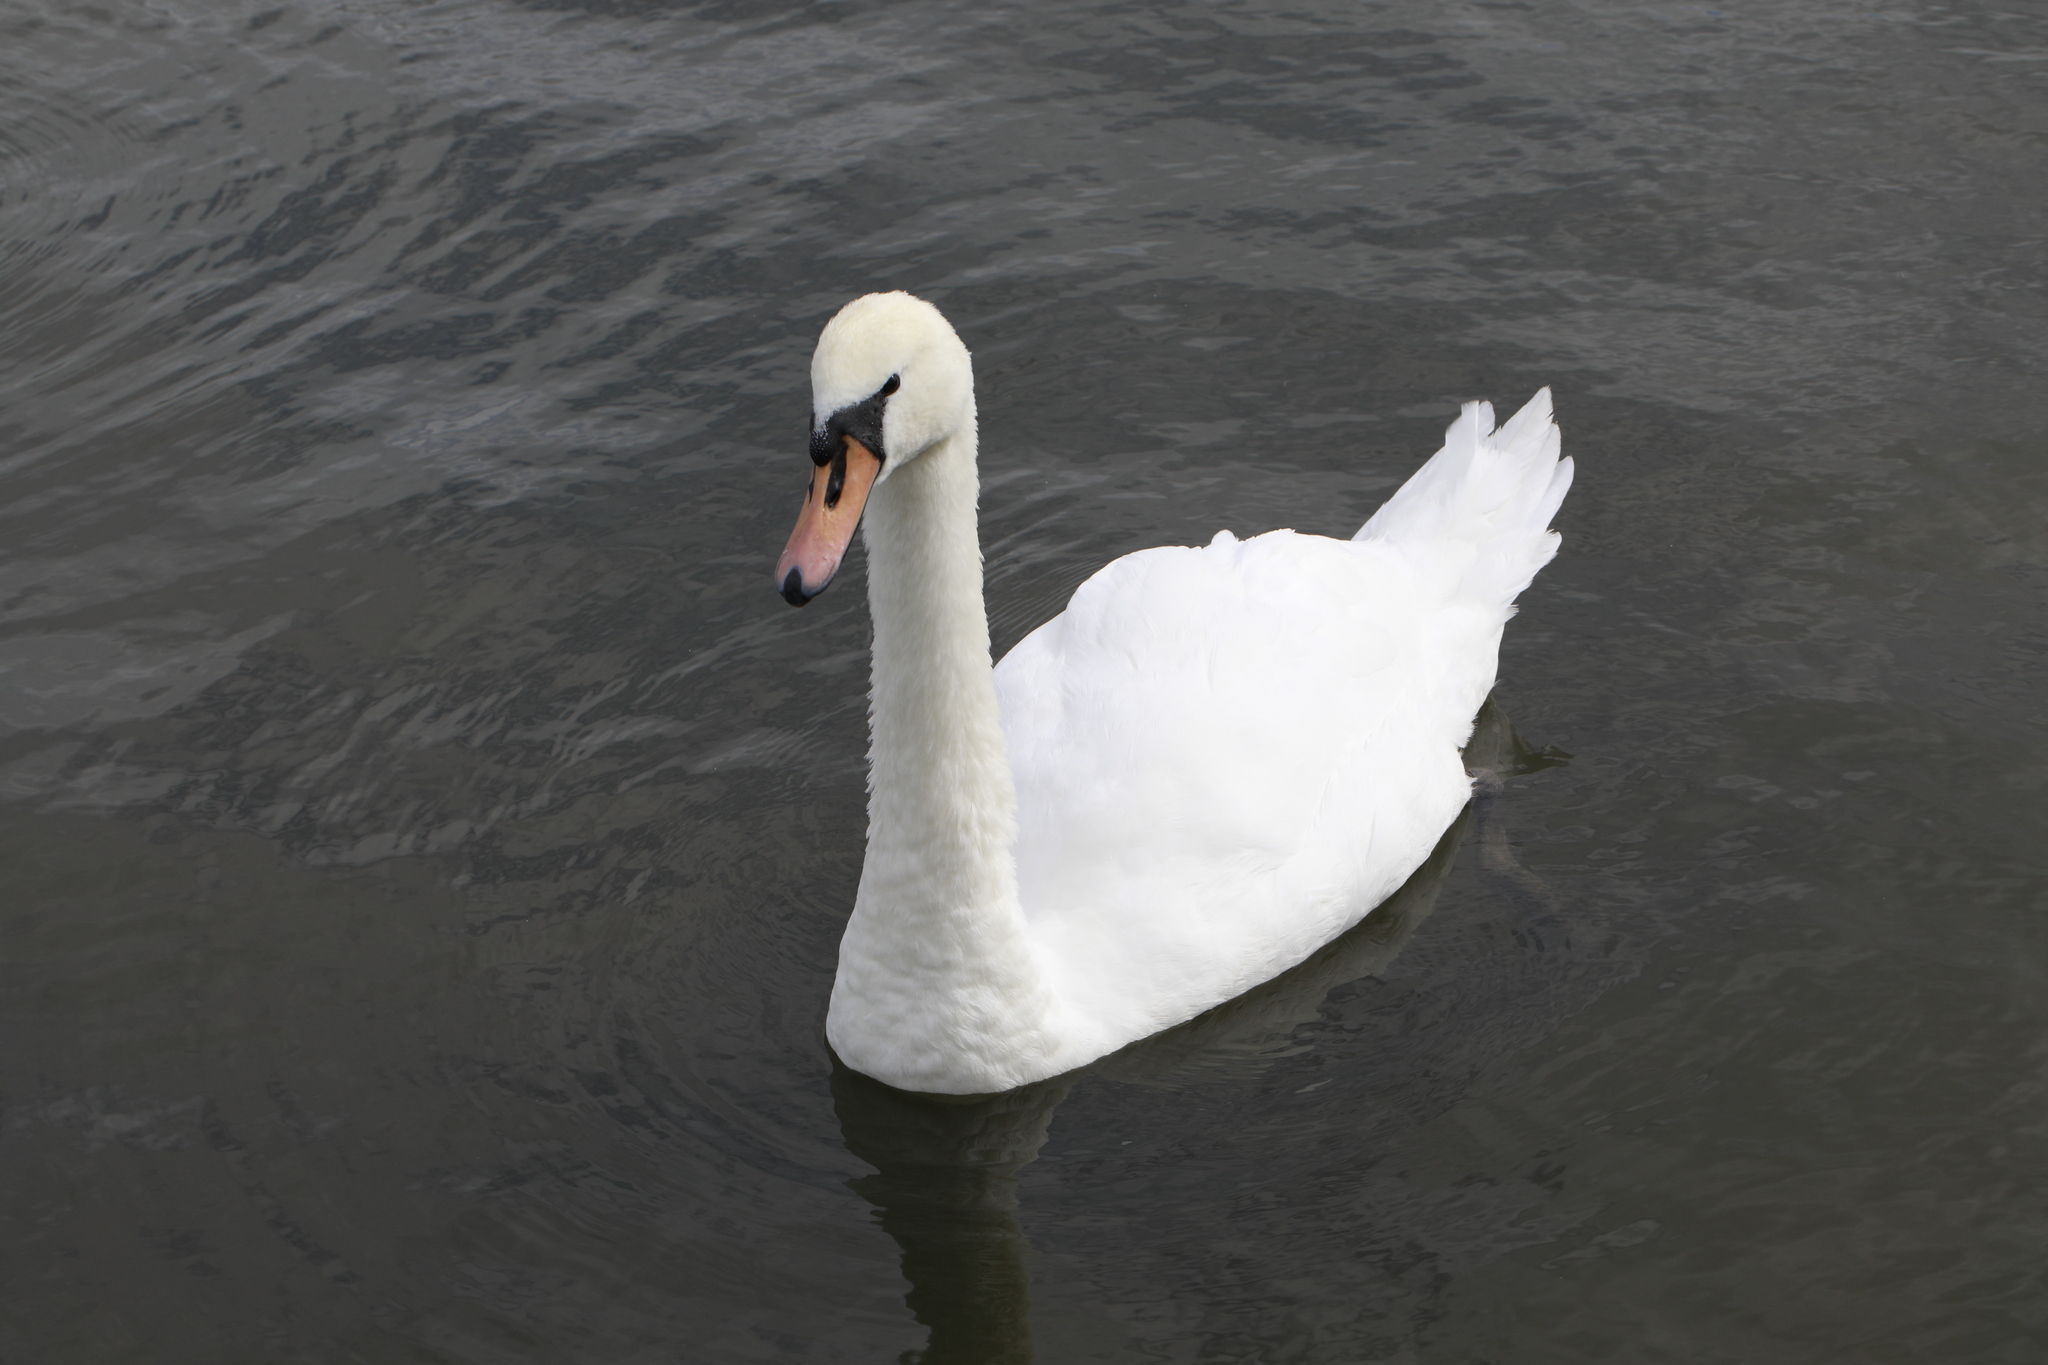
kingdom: Animalia
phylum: Chordata
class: Aves
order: Anseriformes
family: Anatidae
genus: Cygnus
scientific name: Cygnus olor
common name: Mute swan
